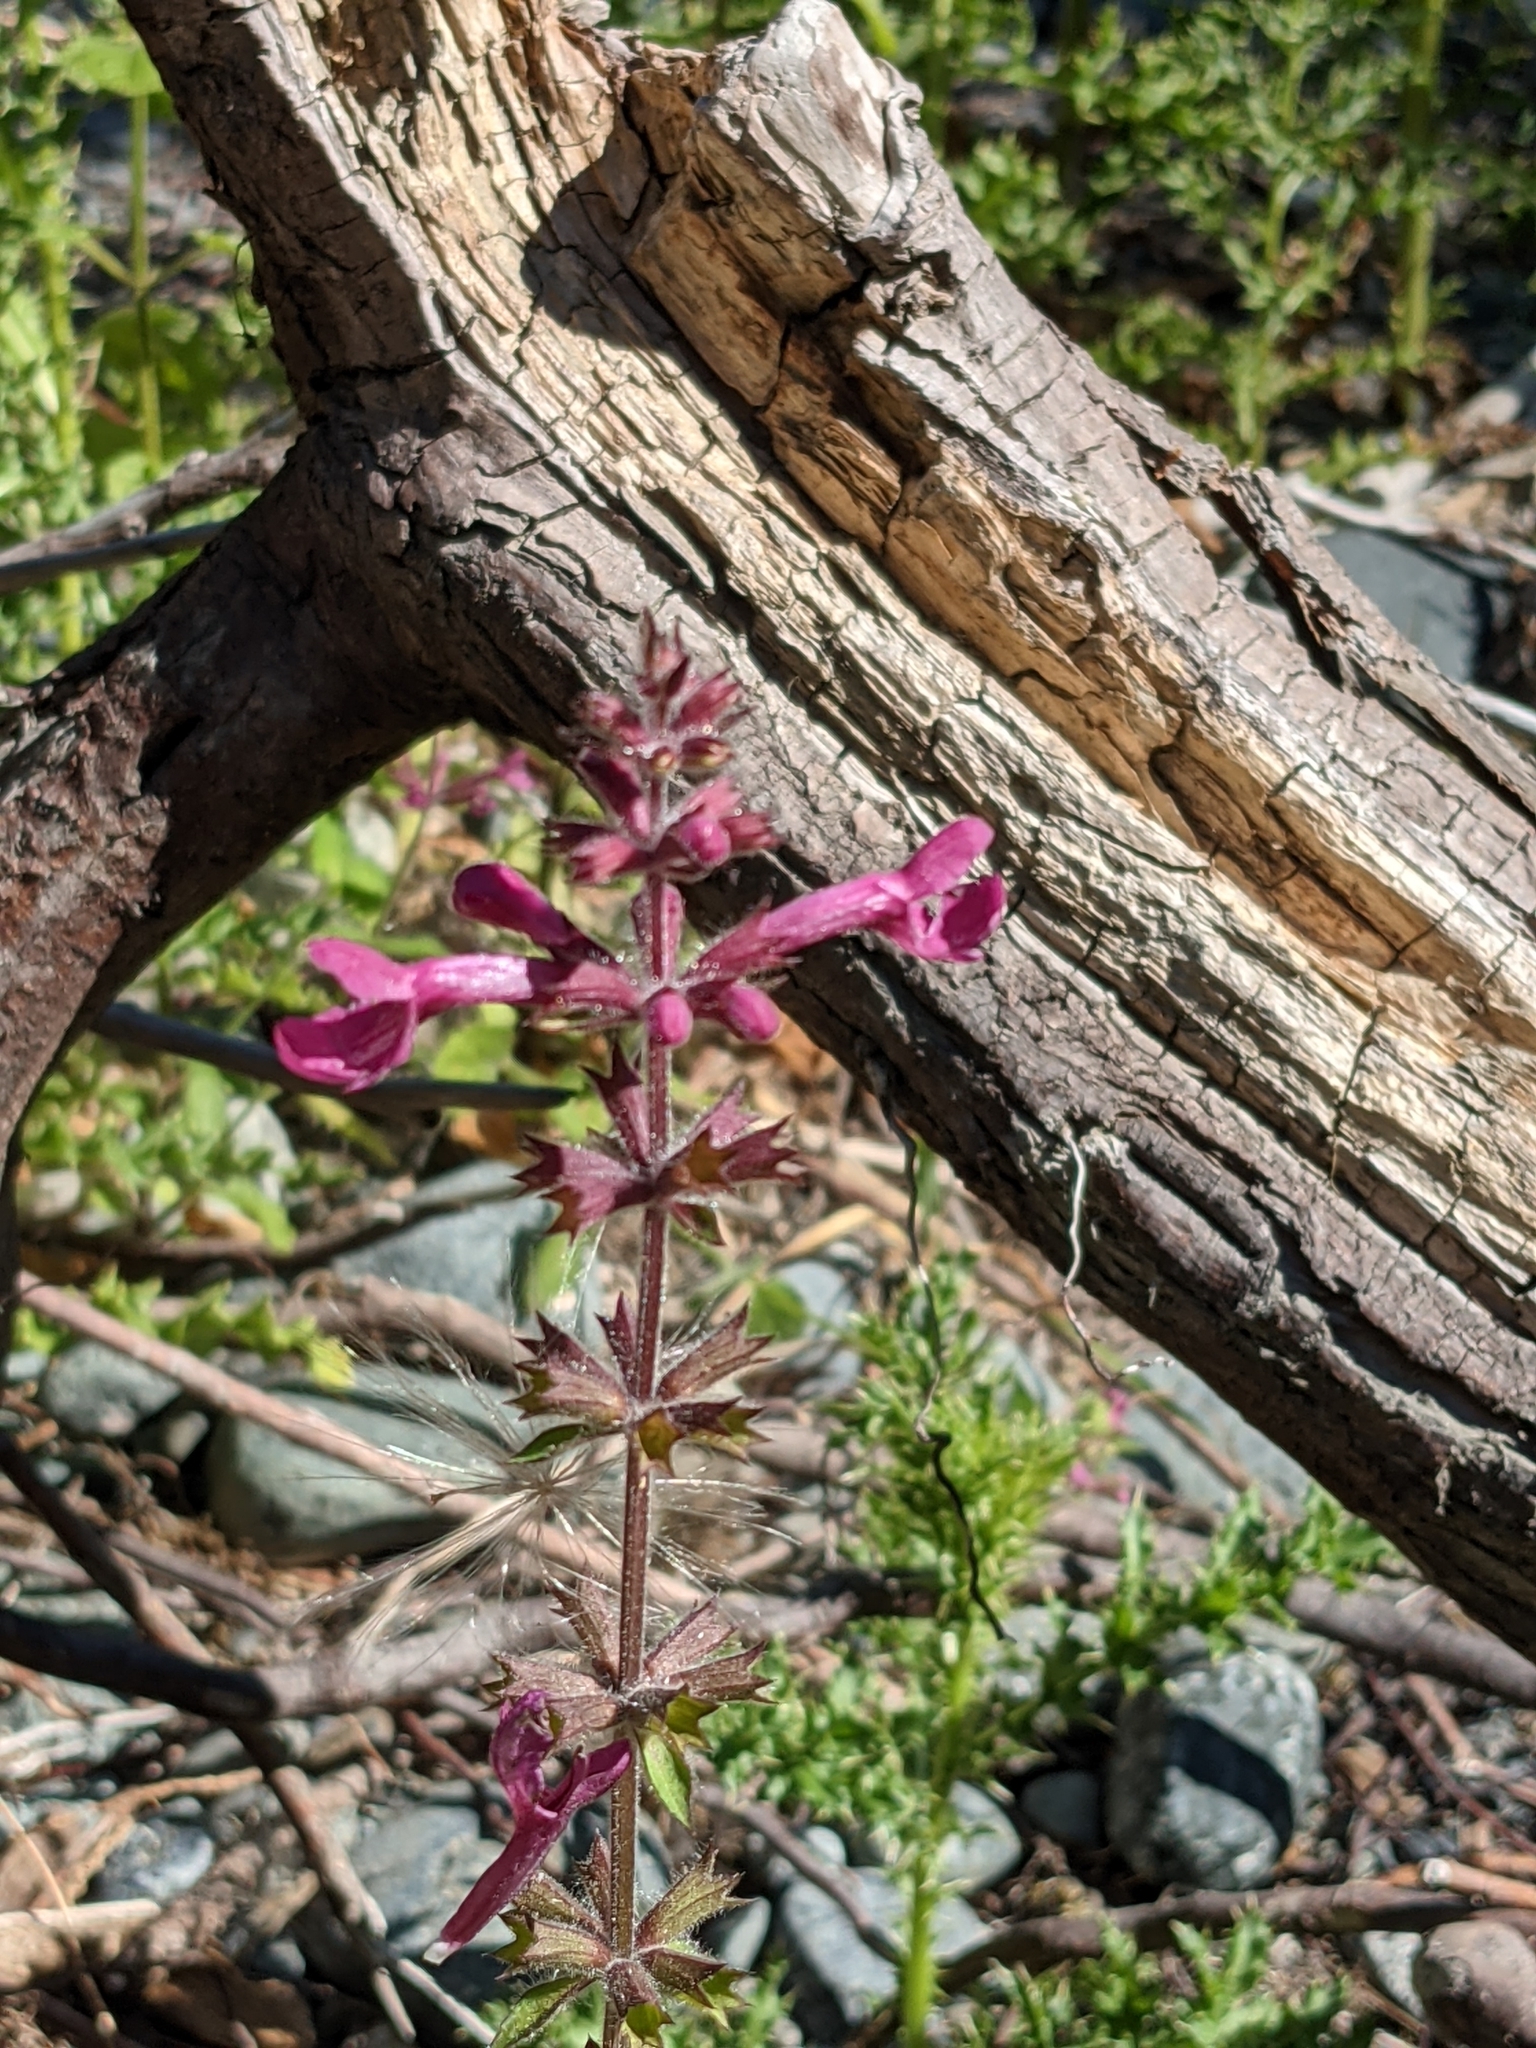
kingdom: Plantae
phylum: Tracheophyta
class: Magnoliopsida
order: Lamiales
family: Lamiaceae
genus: Stachys
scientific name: Stachys chamissonis
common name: Coastal hedge-nettle
